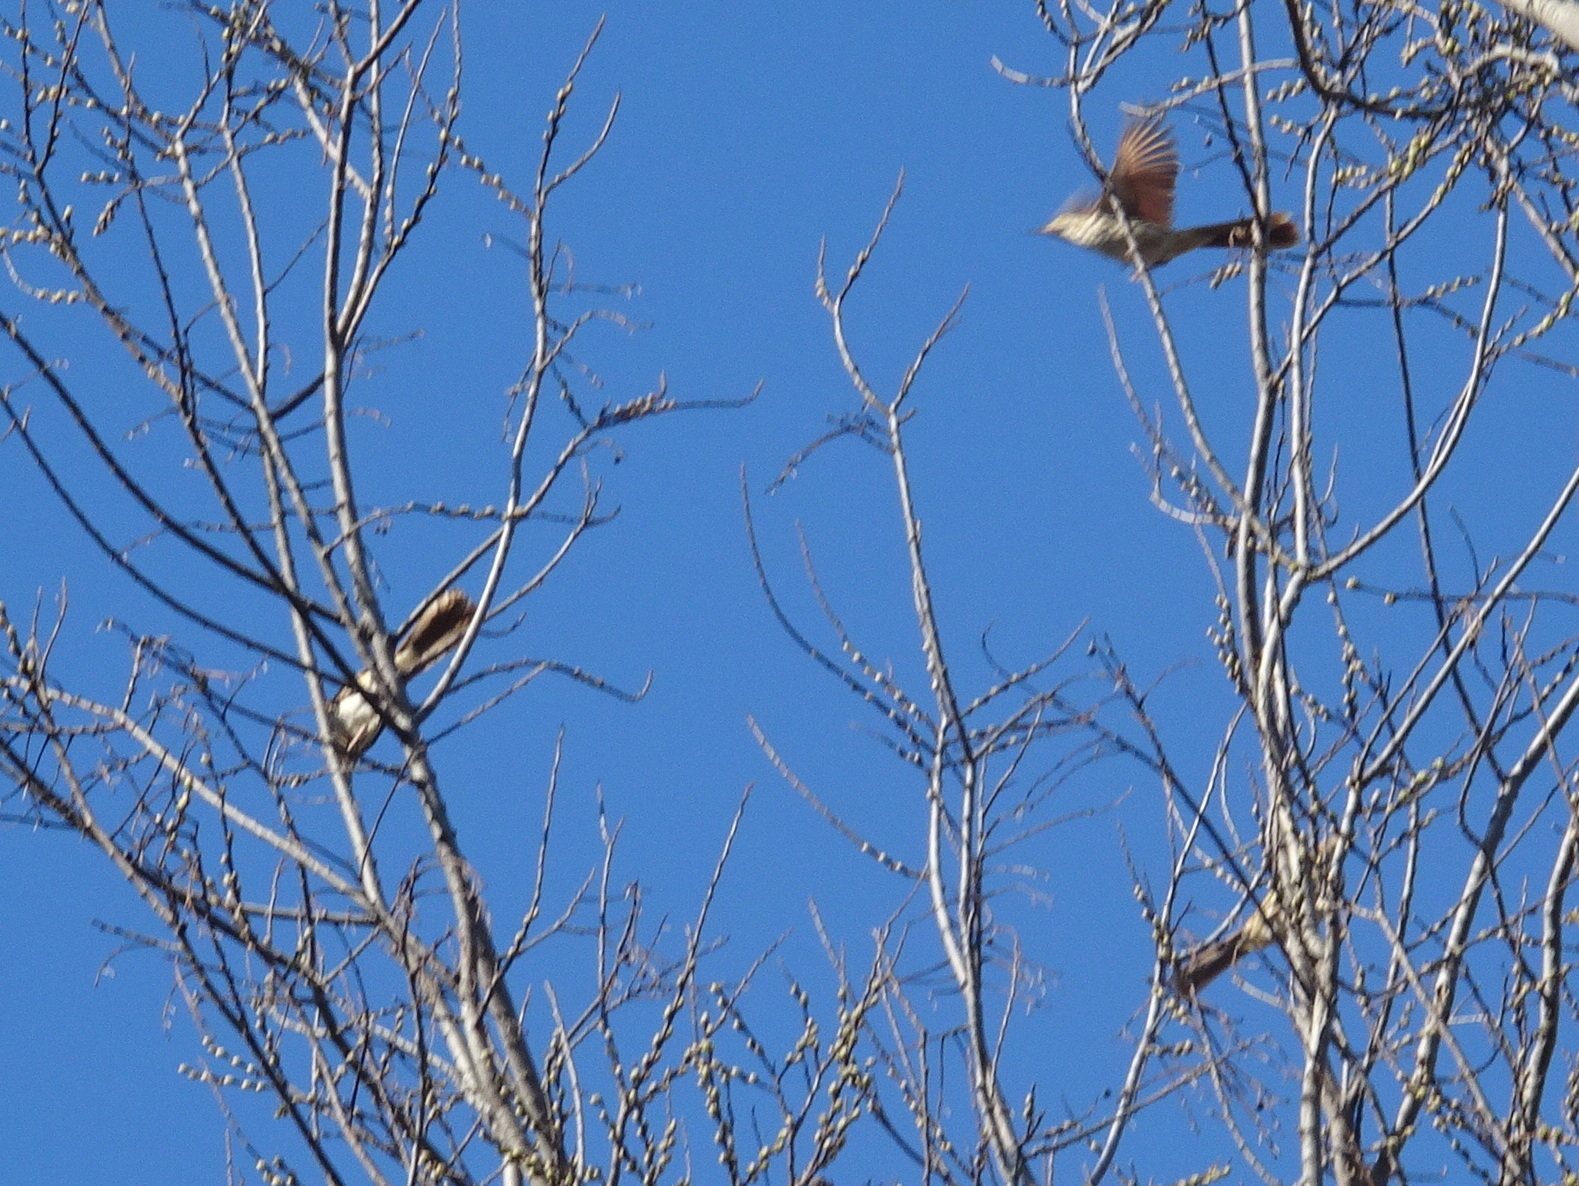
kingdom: Animalia
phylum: Chordata
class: Aves
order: Passeriformes
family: Mimidae
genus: Toxostoma
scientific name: Toxostoma rufum
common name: Brown thrasher
